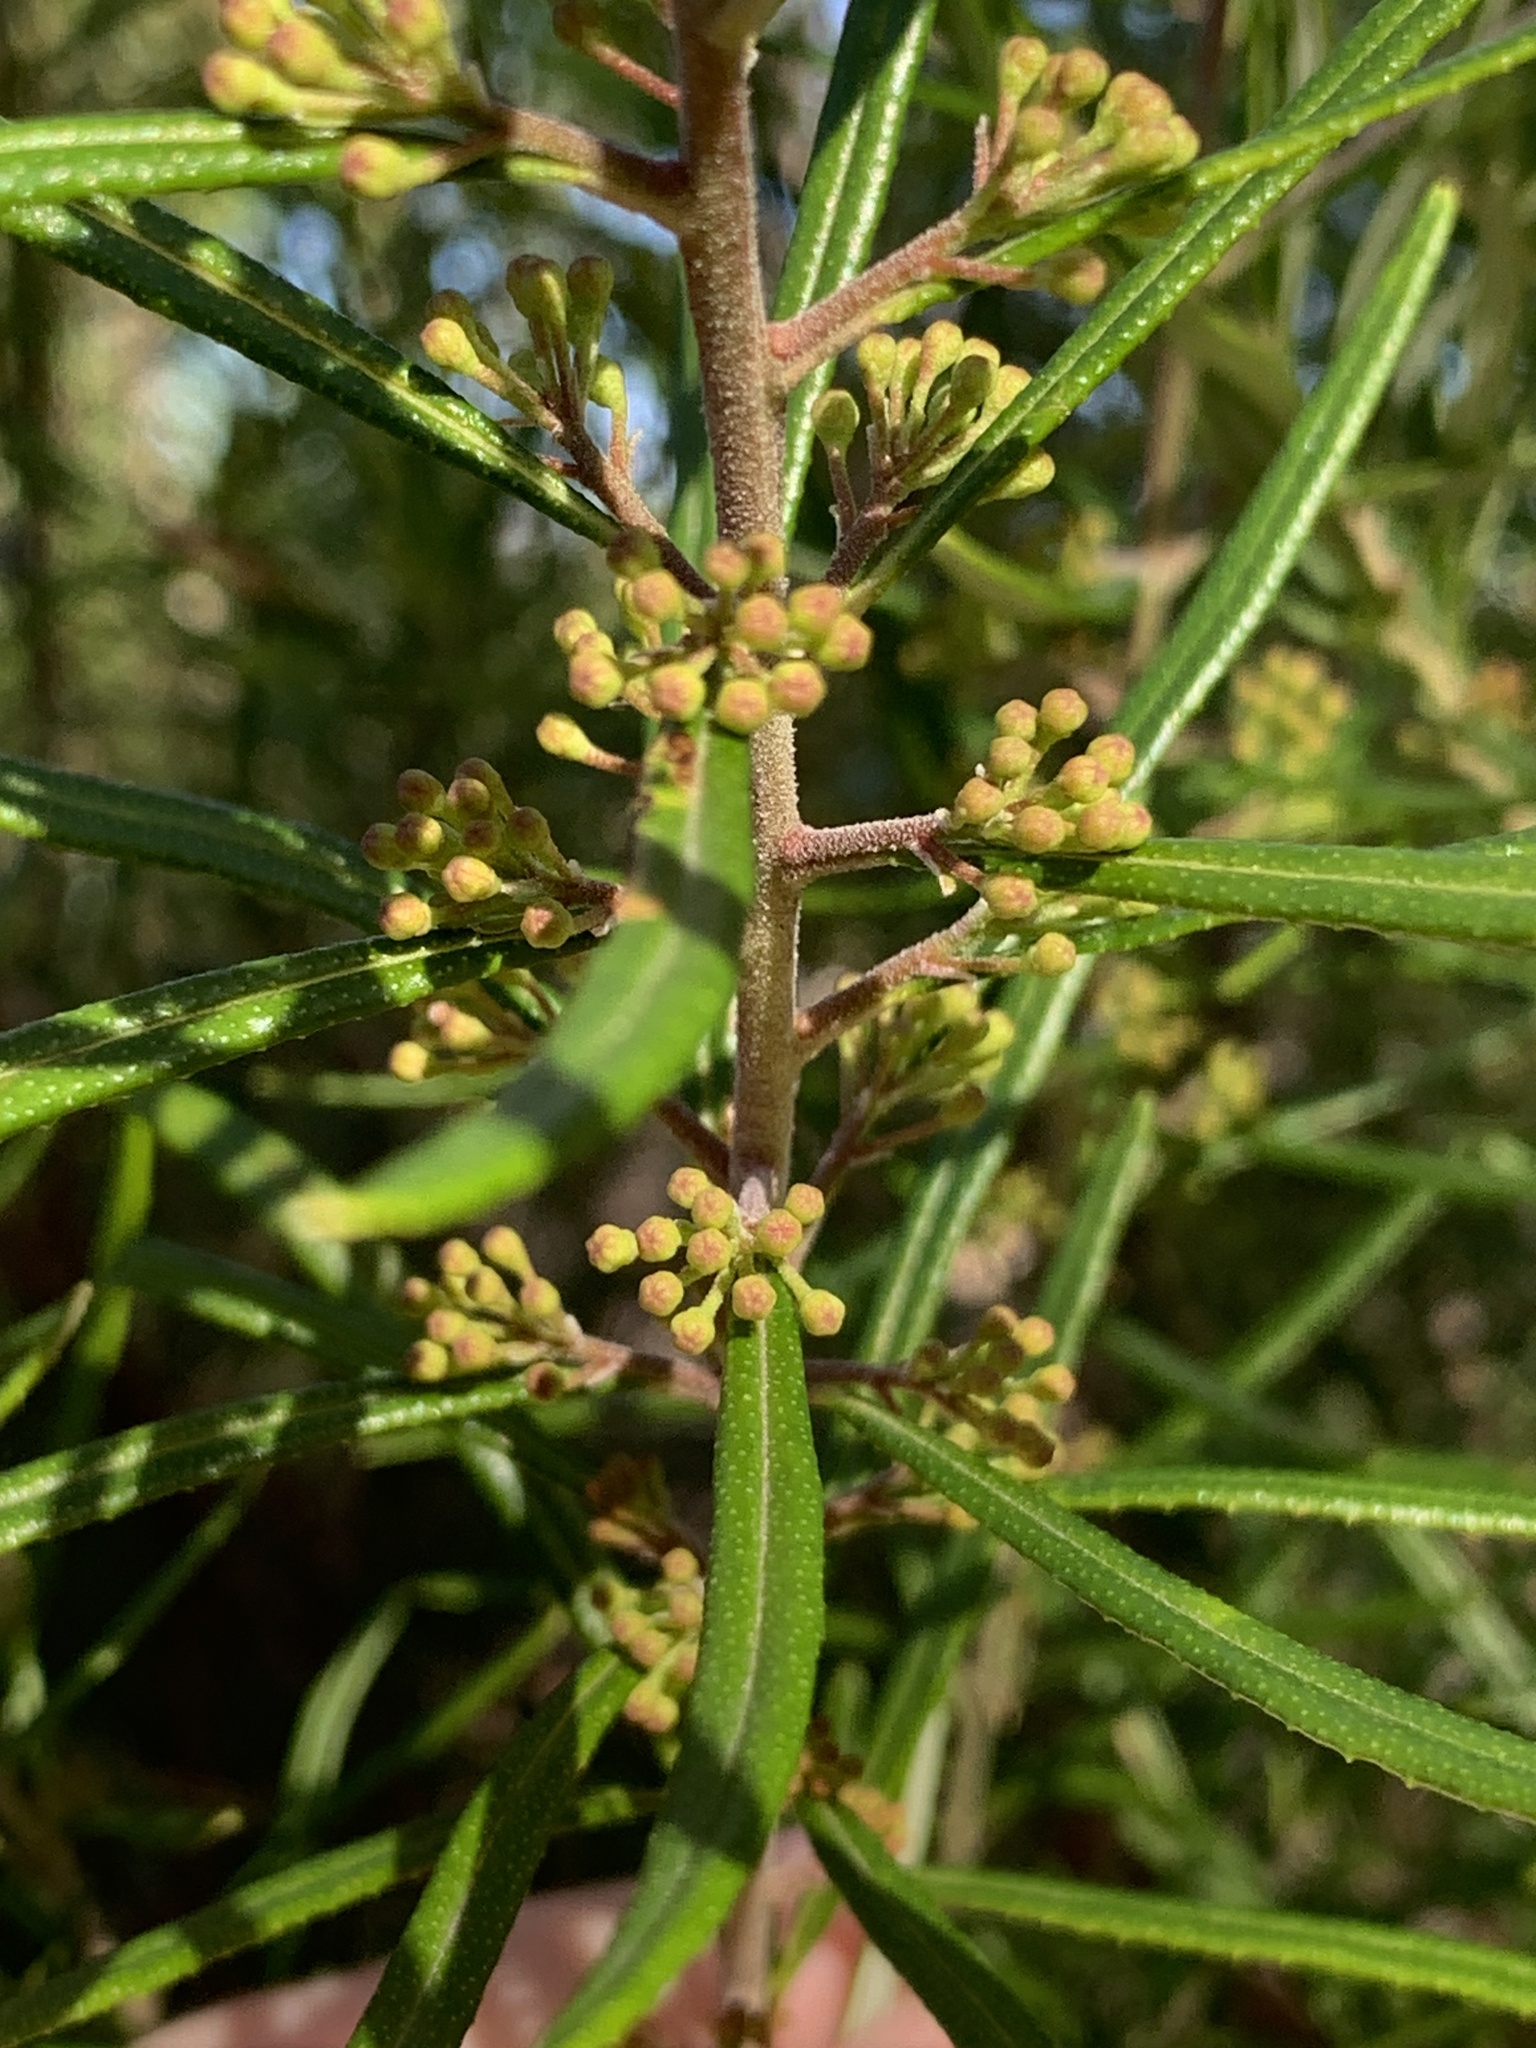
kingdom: Plantae
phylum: Tracheophyta
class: Magnoliopsida
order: Sapindales
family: Rutaceae
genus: Leionema
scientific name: Leionema dentatum
